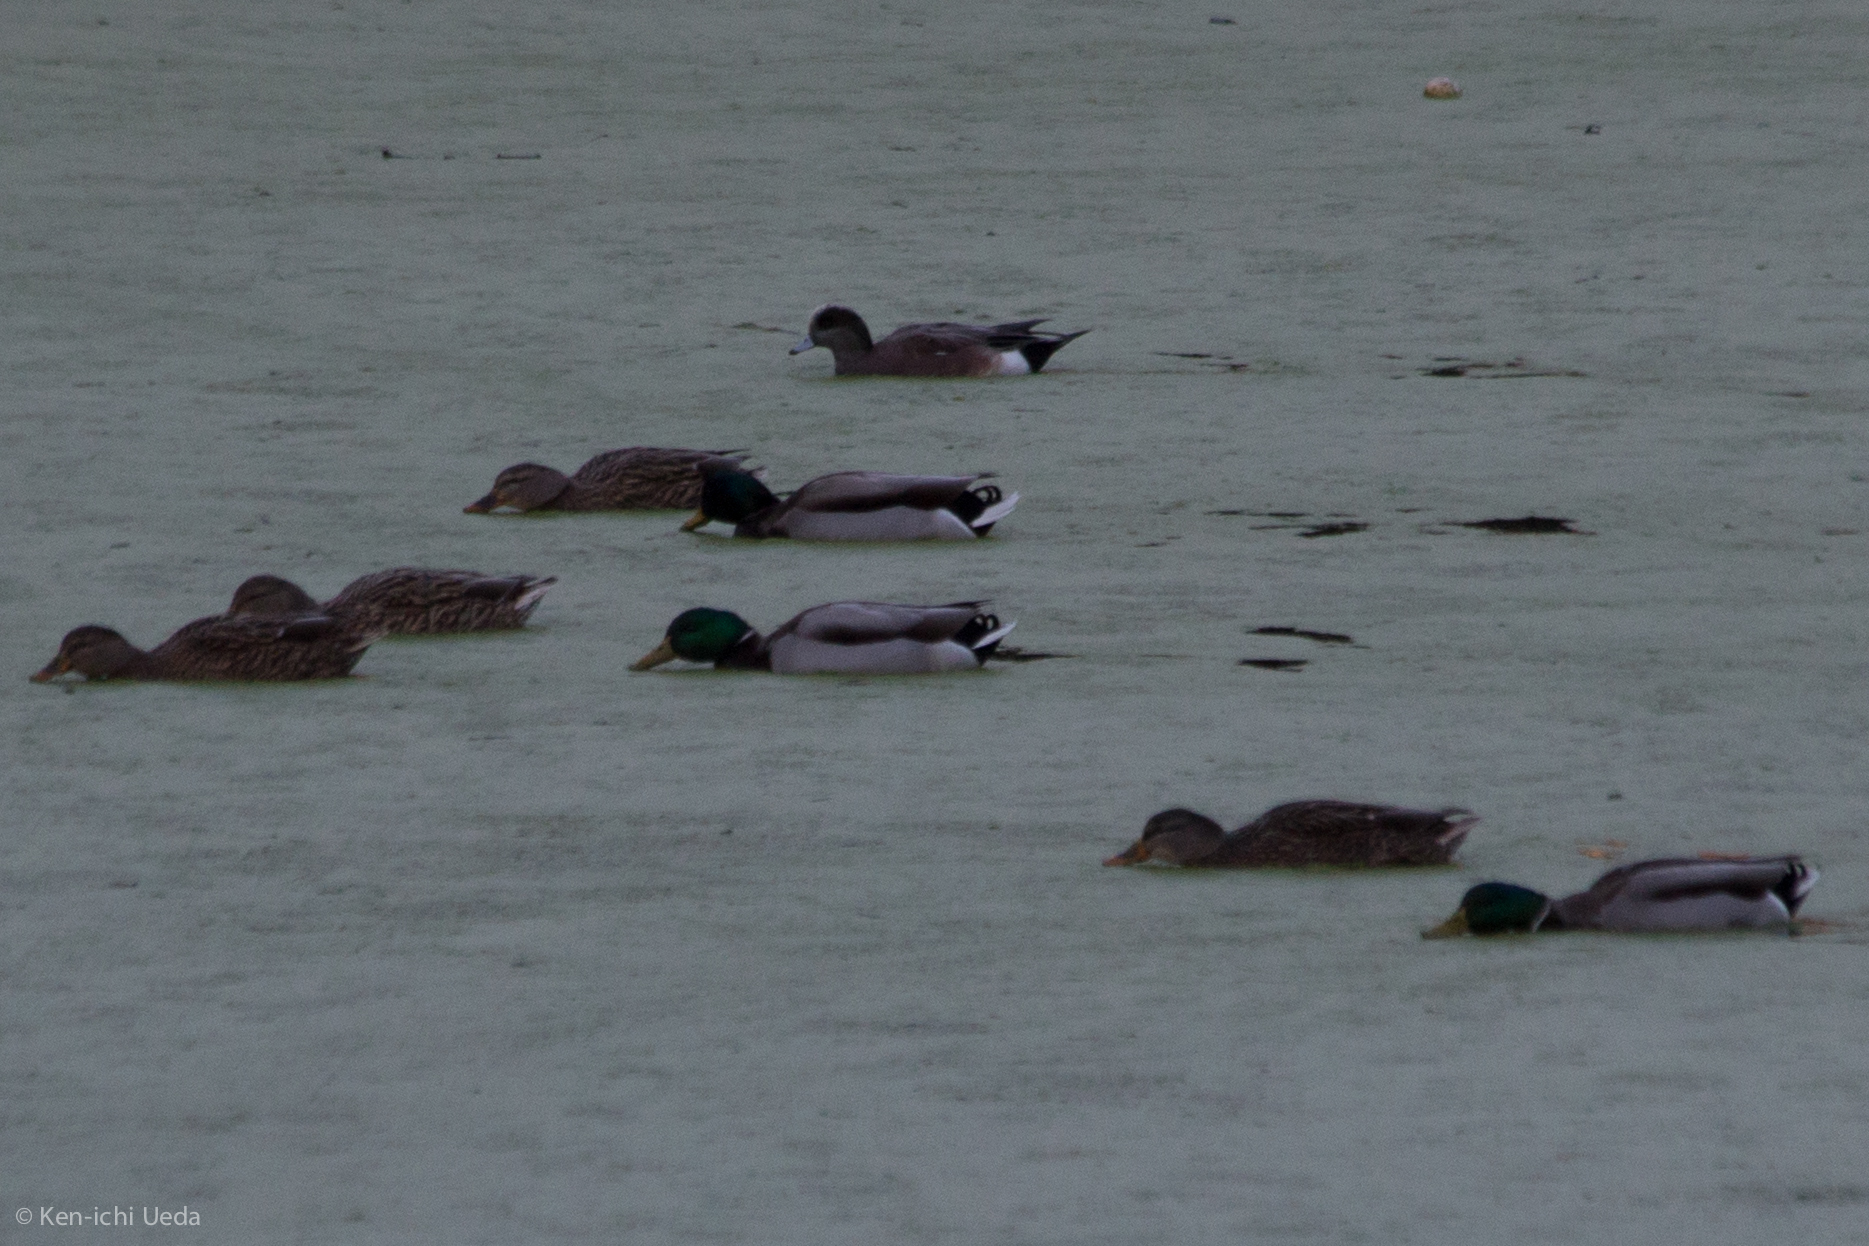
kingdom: Animalia
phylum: Chordata
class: Aves
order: Anseriformes
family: Anatidae
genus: Anas
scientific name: Anas platyrhynchos
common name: Mallard
